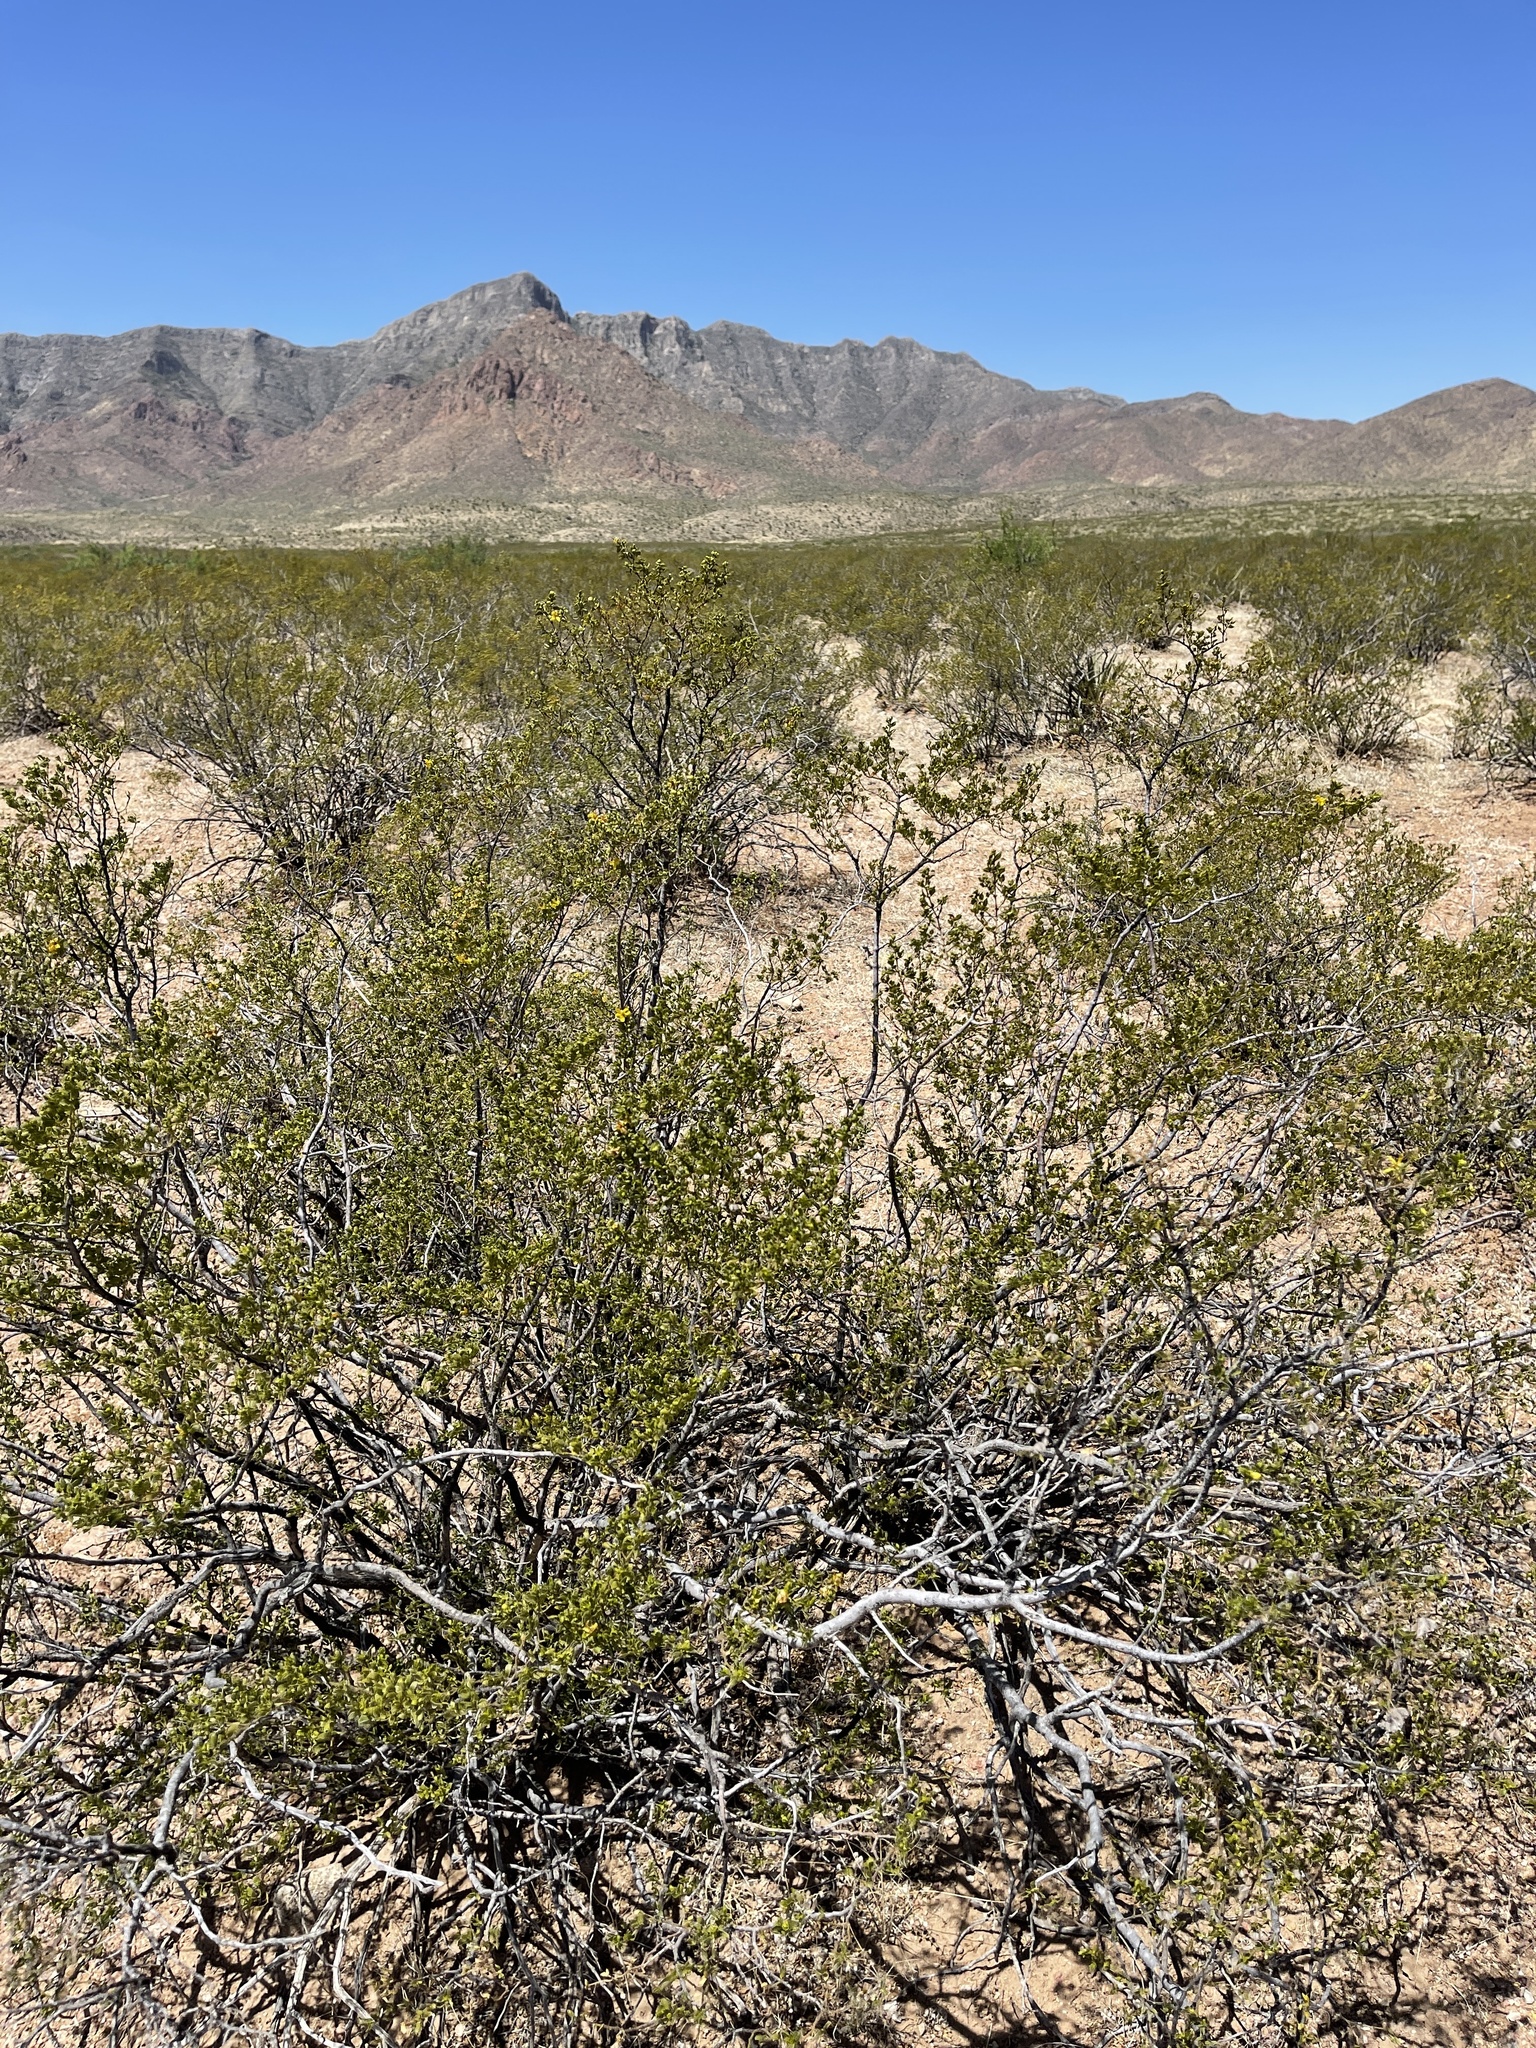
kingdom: Plantae
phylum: Tracheophyta
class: Magnoliopsida
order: Zygophyllales
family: Zygophyllaceae
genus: Larrea
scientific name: Larrea tridentata
